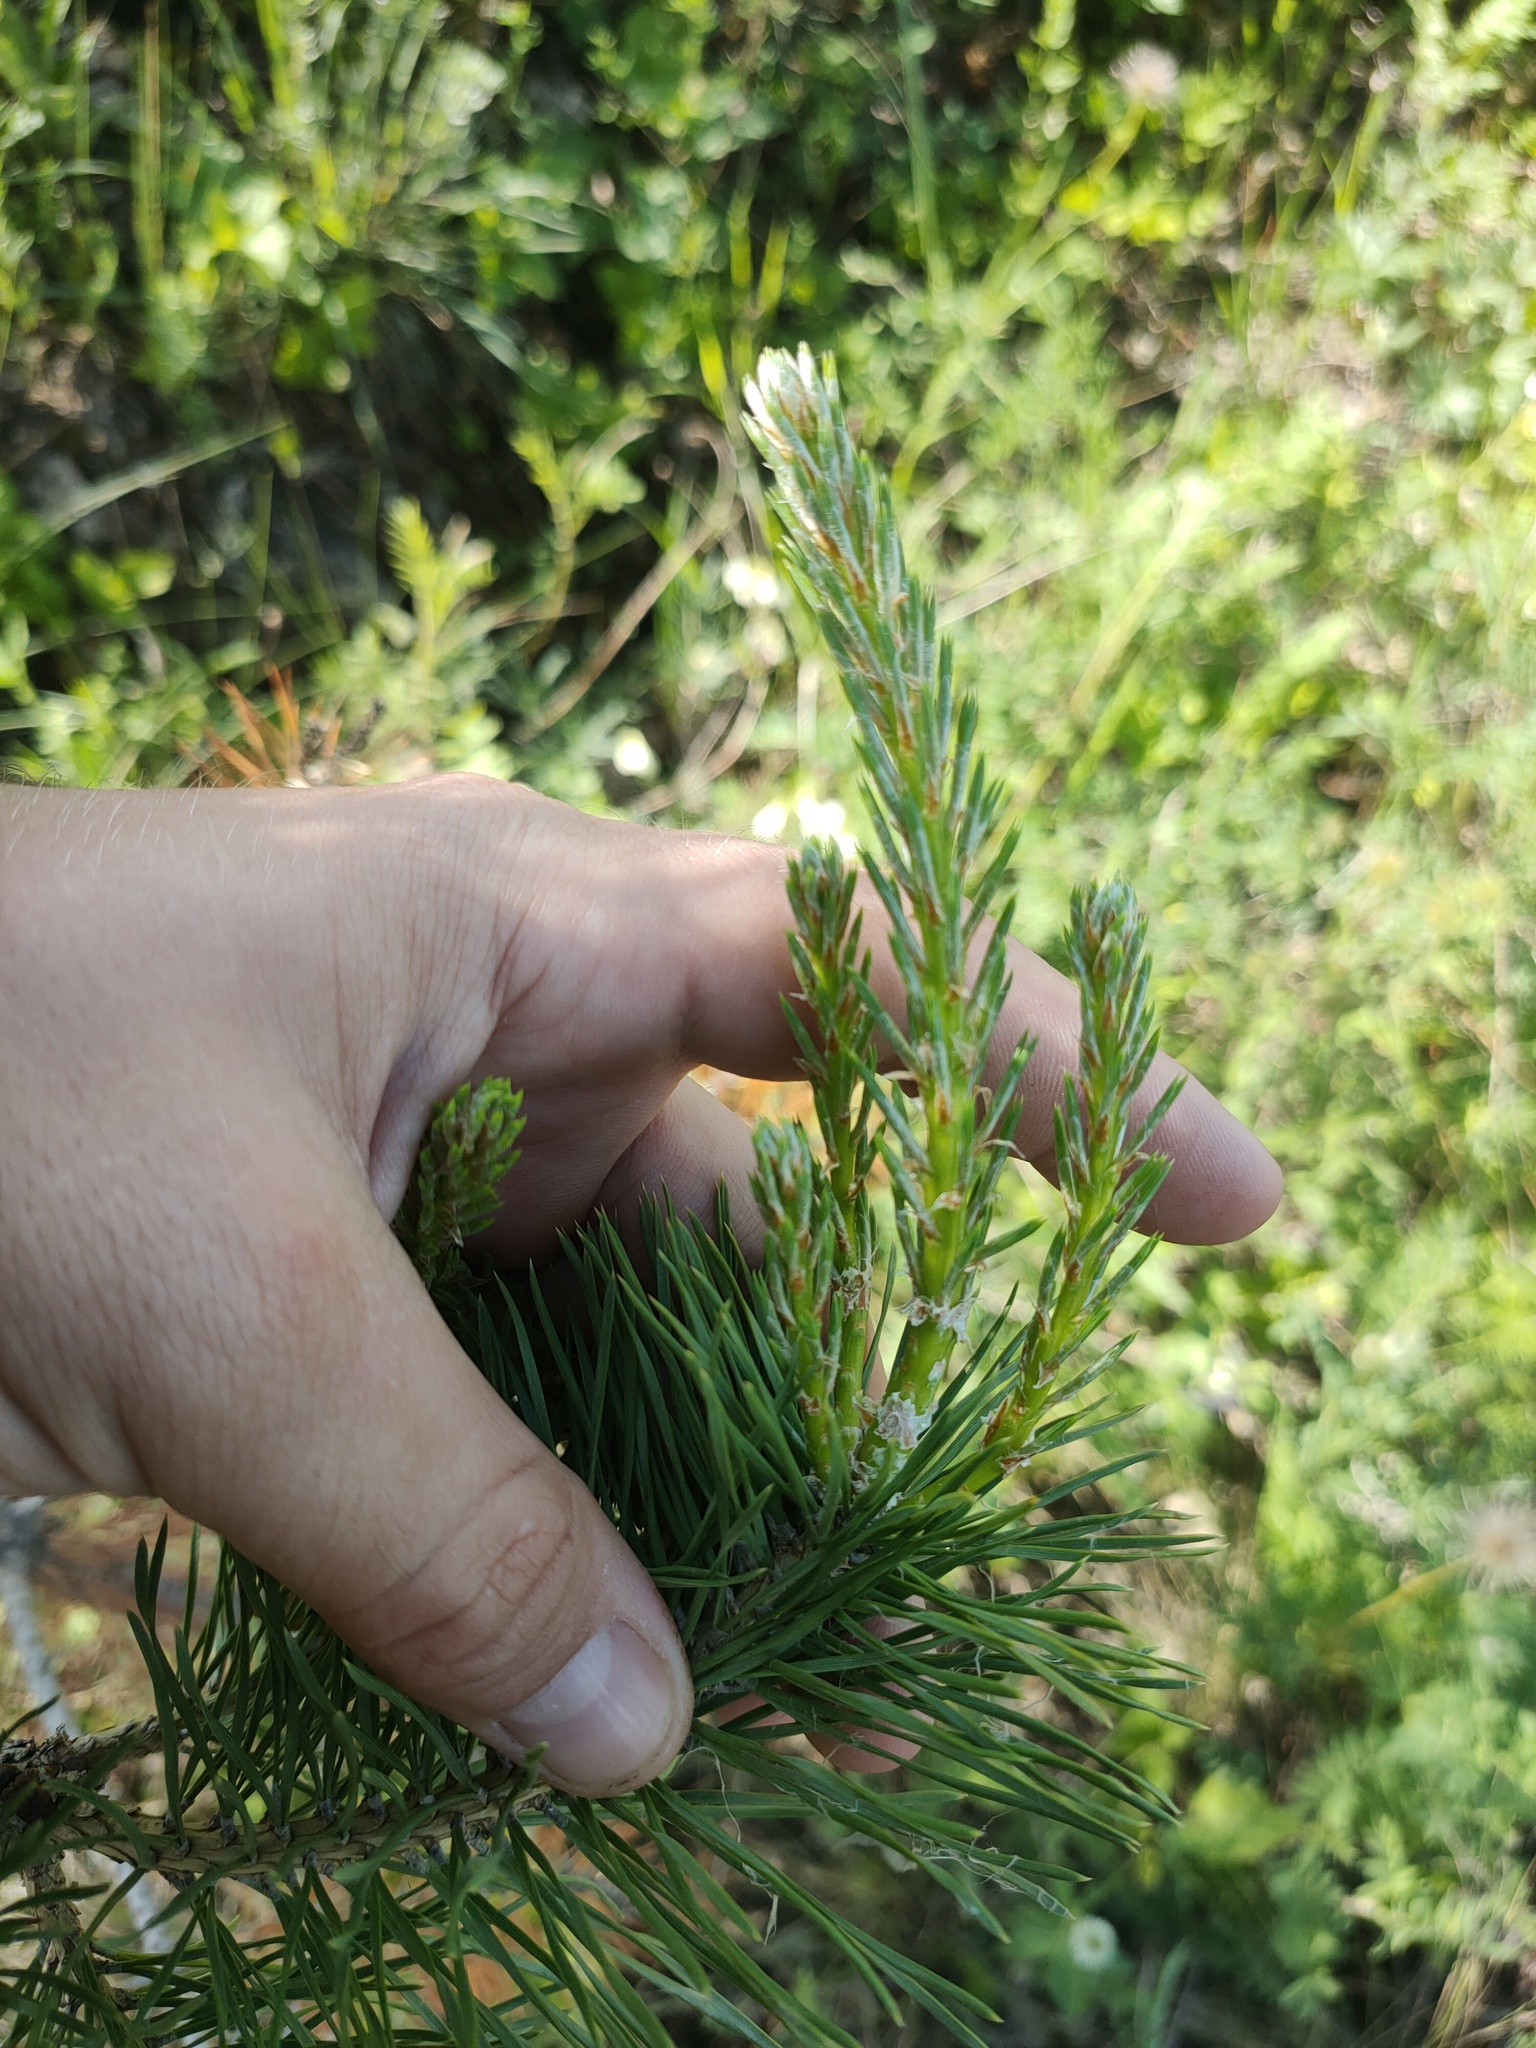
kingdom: Plantae
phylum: Tracheophyta
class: Pinopsida
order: Pinales
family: Pinaceae
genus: Pinus
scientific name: Pinus sylvestris
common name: Scots pine
